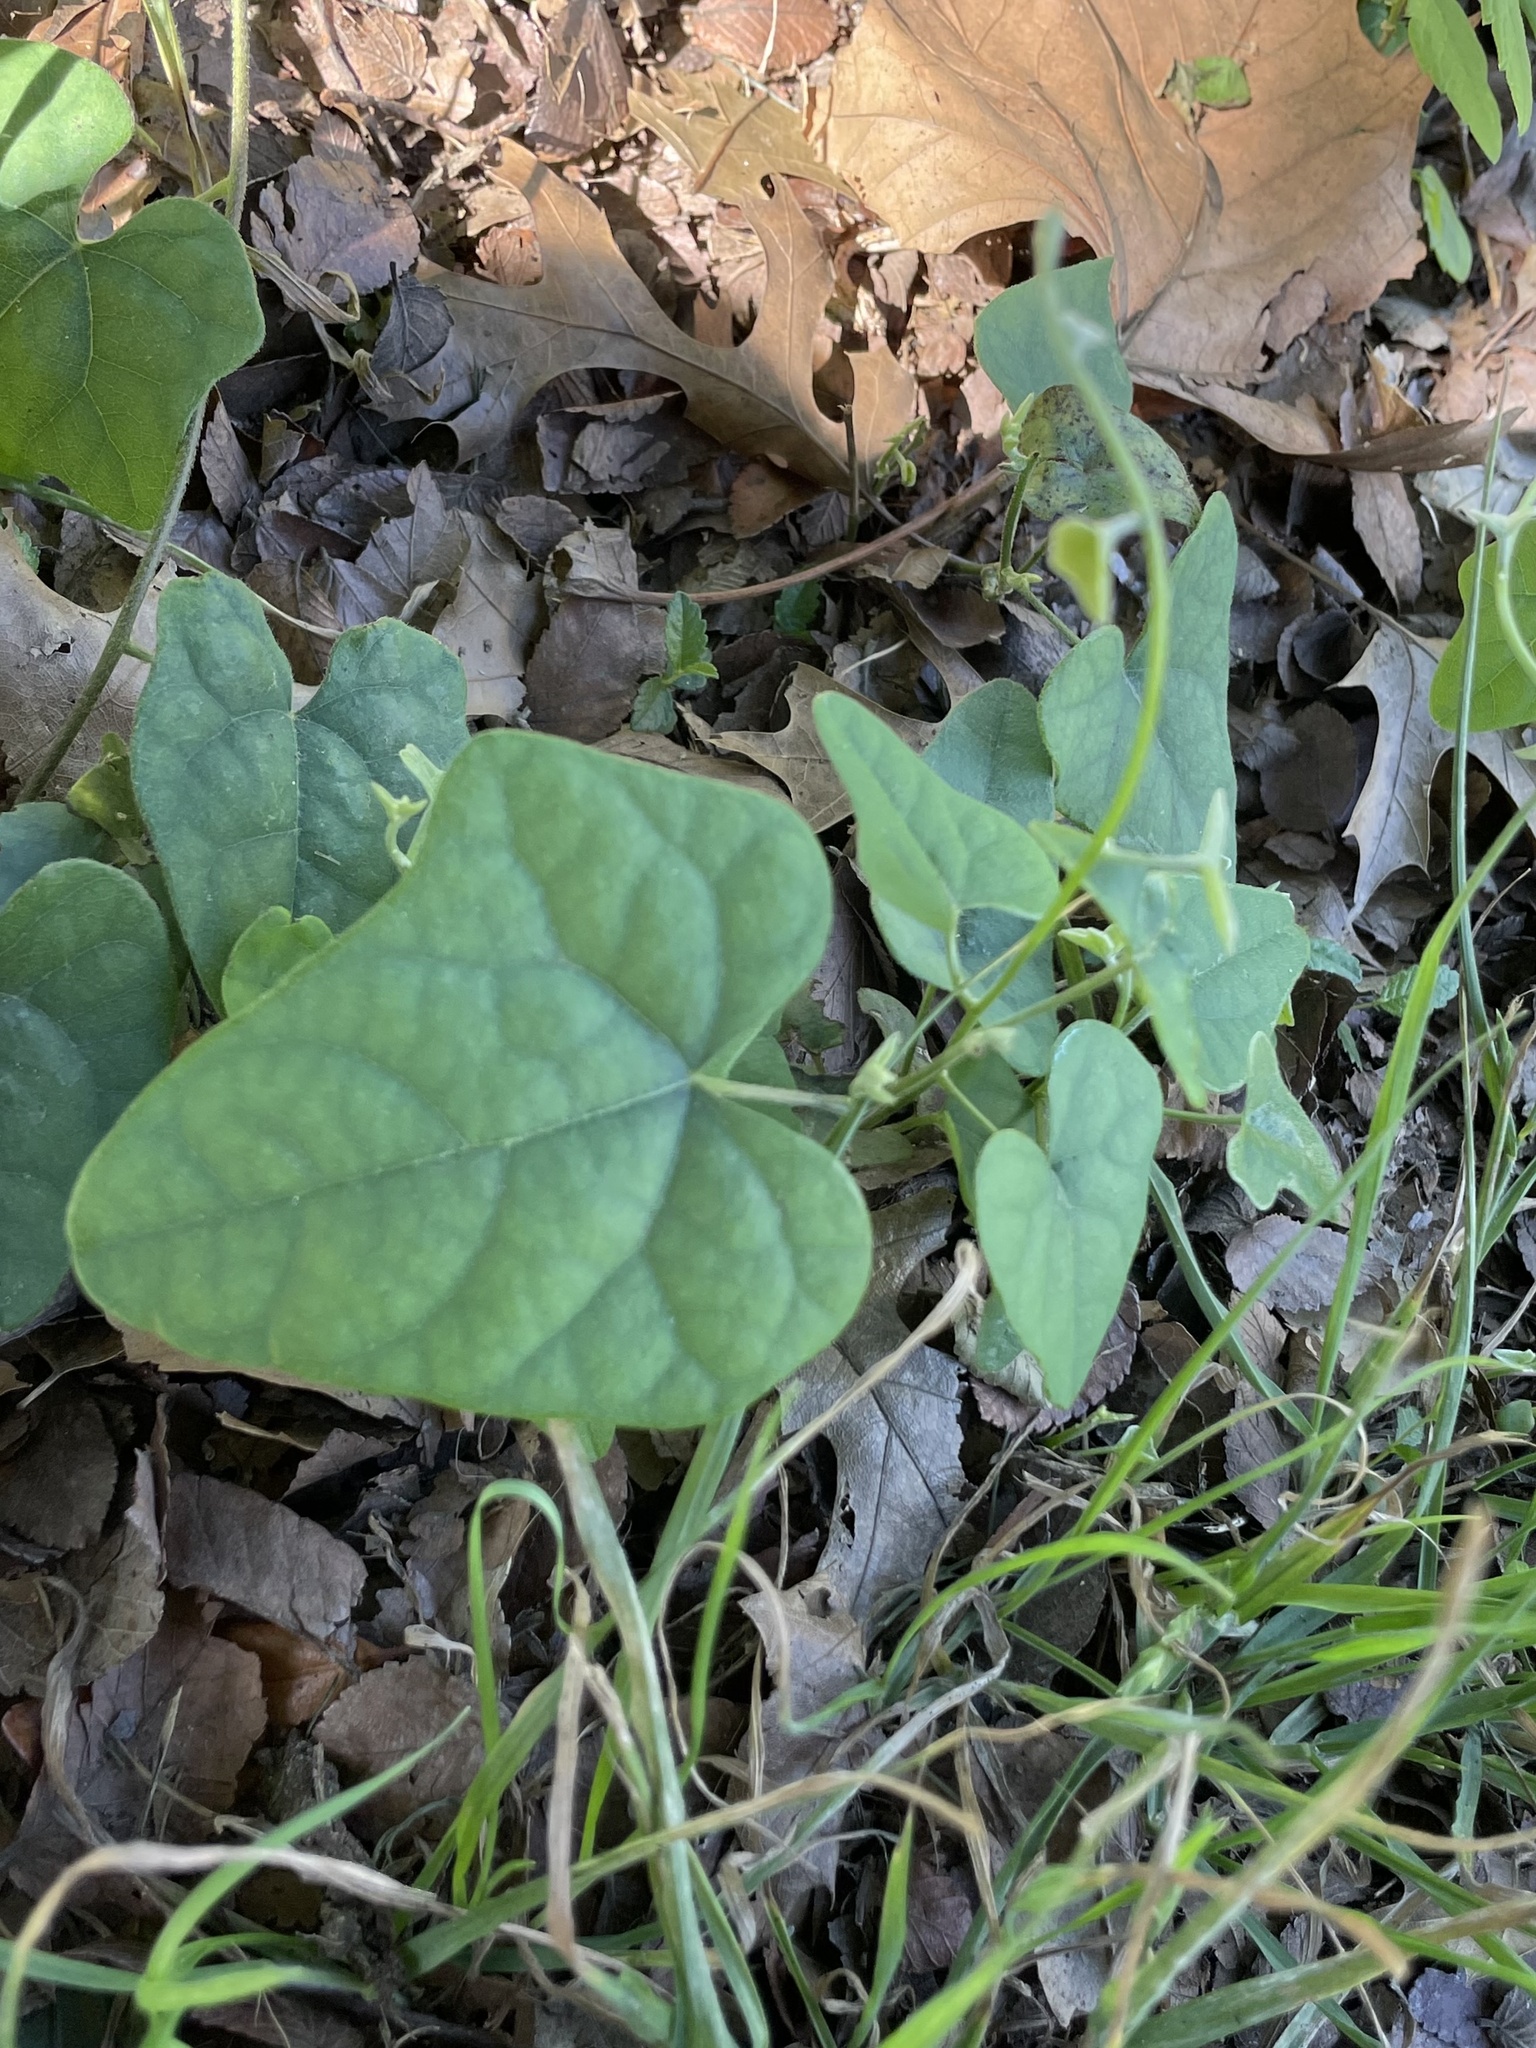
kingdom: Plantae
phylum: Tracheophyta
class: Magnoliopsida
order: Ranunculales
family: Menispermaceae
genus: Cocculus
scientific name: Cocculus carolinus
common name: Carolina moonseed
